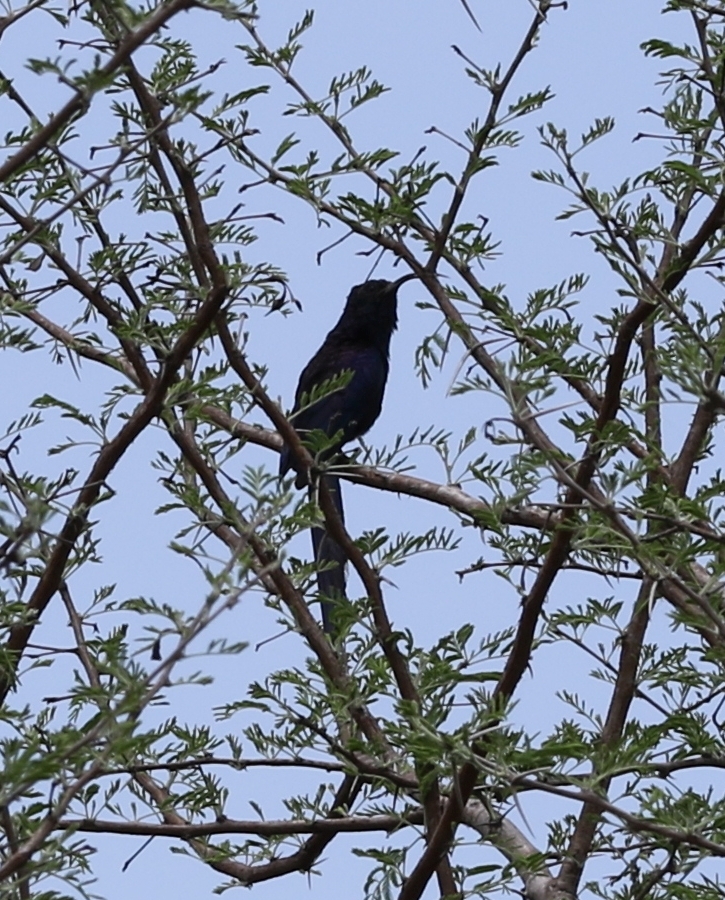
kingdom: Animalia
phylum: Chordata
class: Aves
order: Bucerotiformes
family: Phoeniculidae
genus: Rhinopomastus
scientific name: Rhinopomastus cyanomelas
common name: Common scimitarbill
